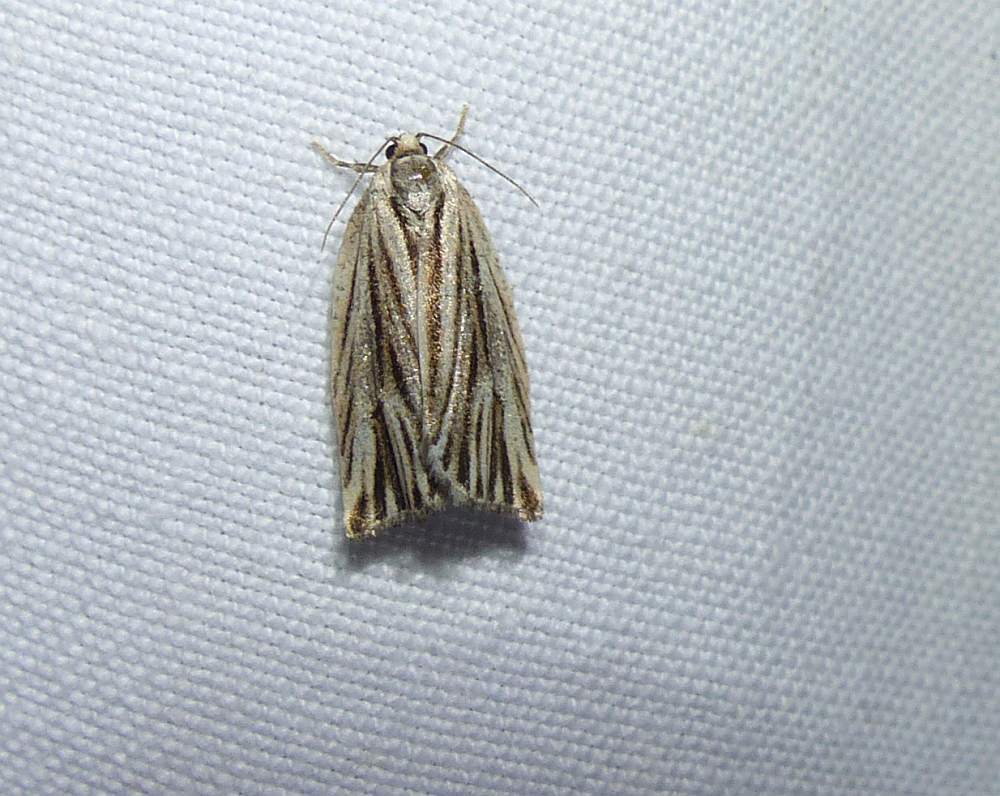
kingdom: Animalia
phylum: Arthropoda
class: Insecta
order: Lepidoptera
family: Tortricidae
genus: Archips
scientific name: Archips strianus
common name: Striated tortrix moth
